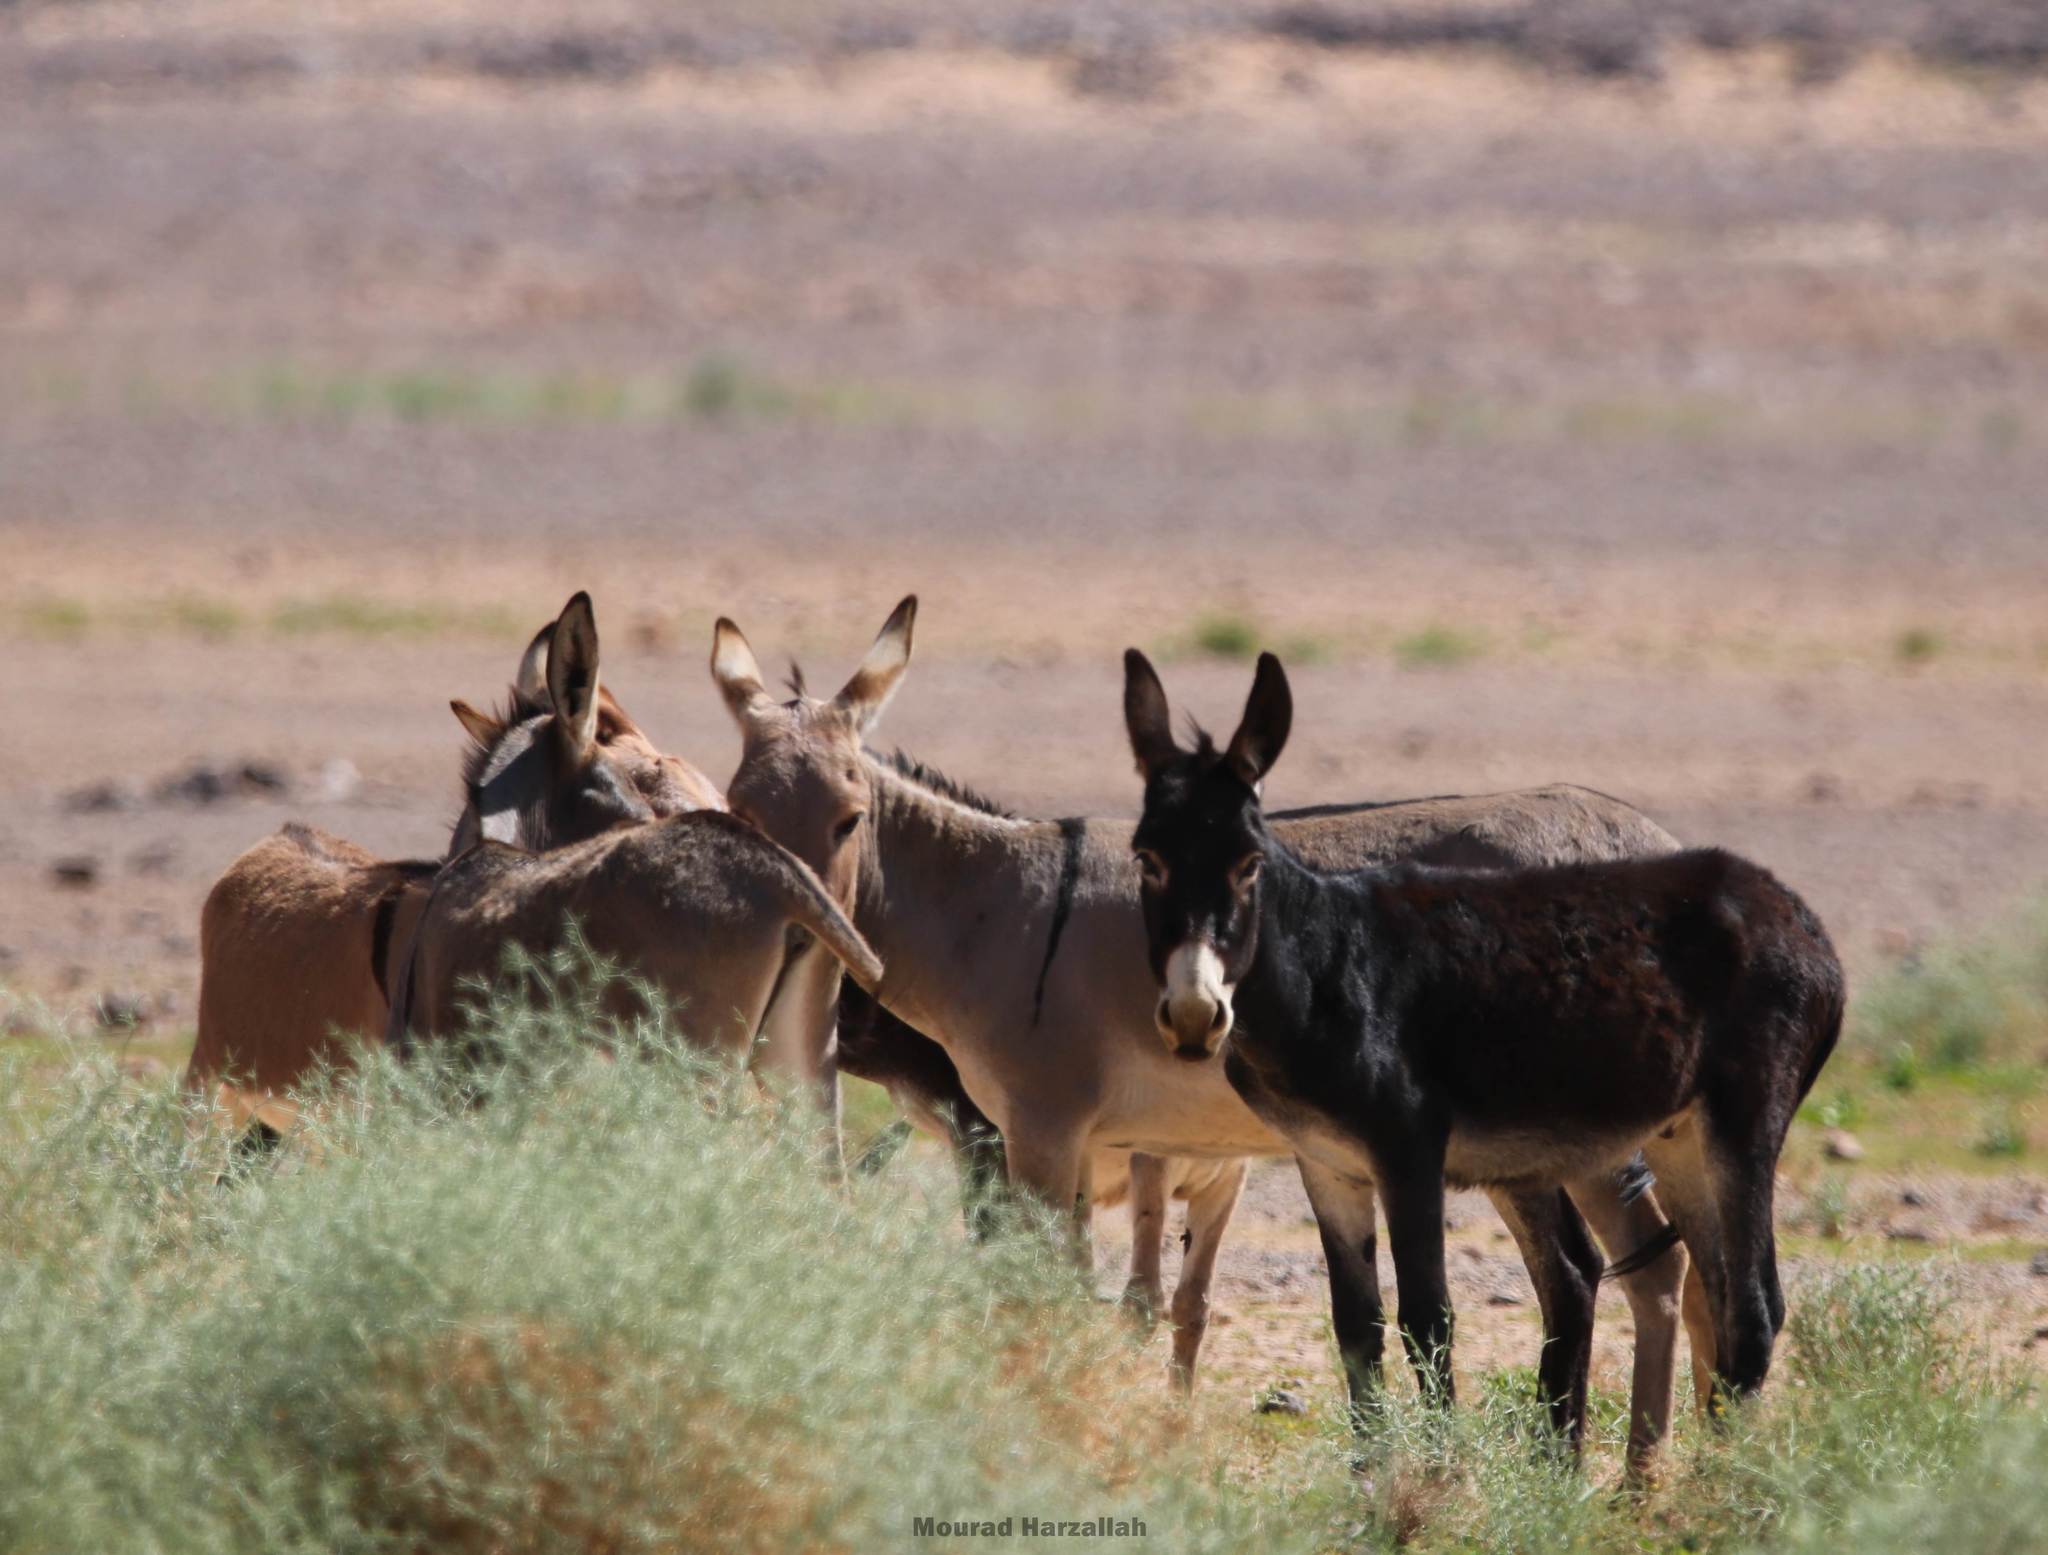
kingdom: Animalia
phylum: Chordata
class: Mammalia
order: Perissodactyla
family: Equidae
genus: Equus
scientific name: Equus asinus
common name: Ass
